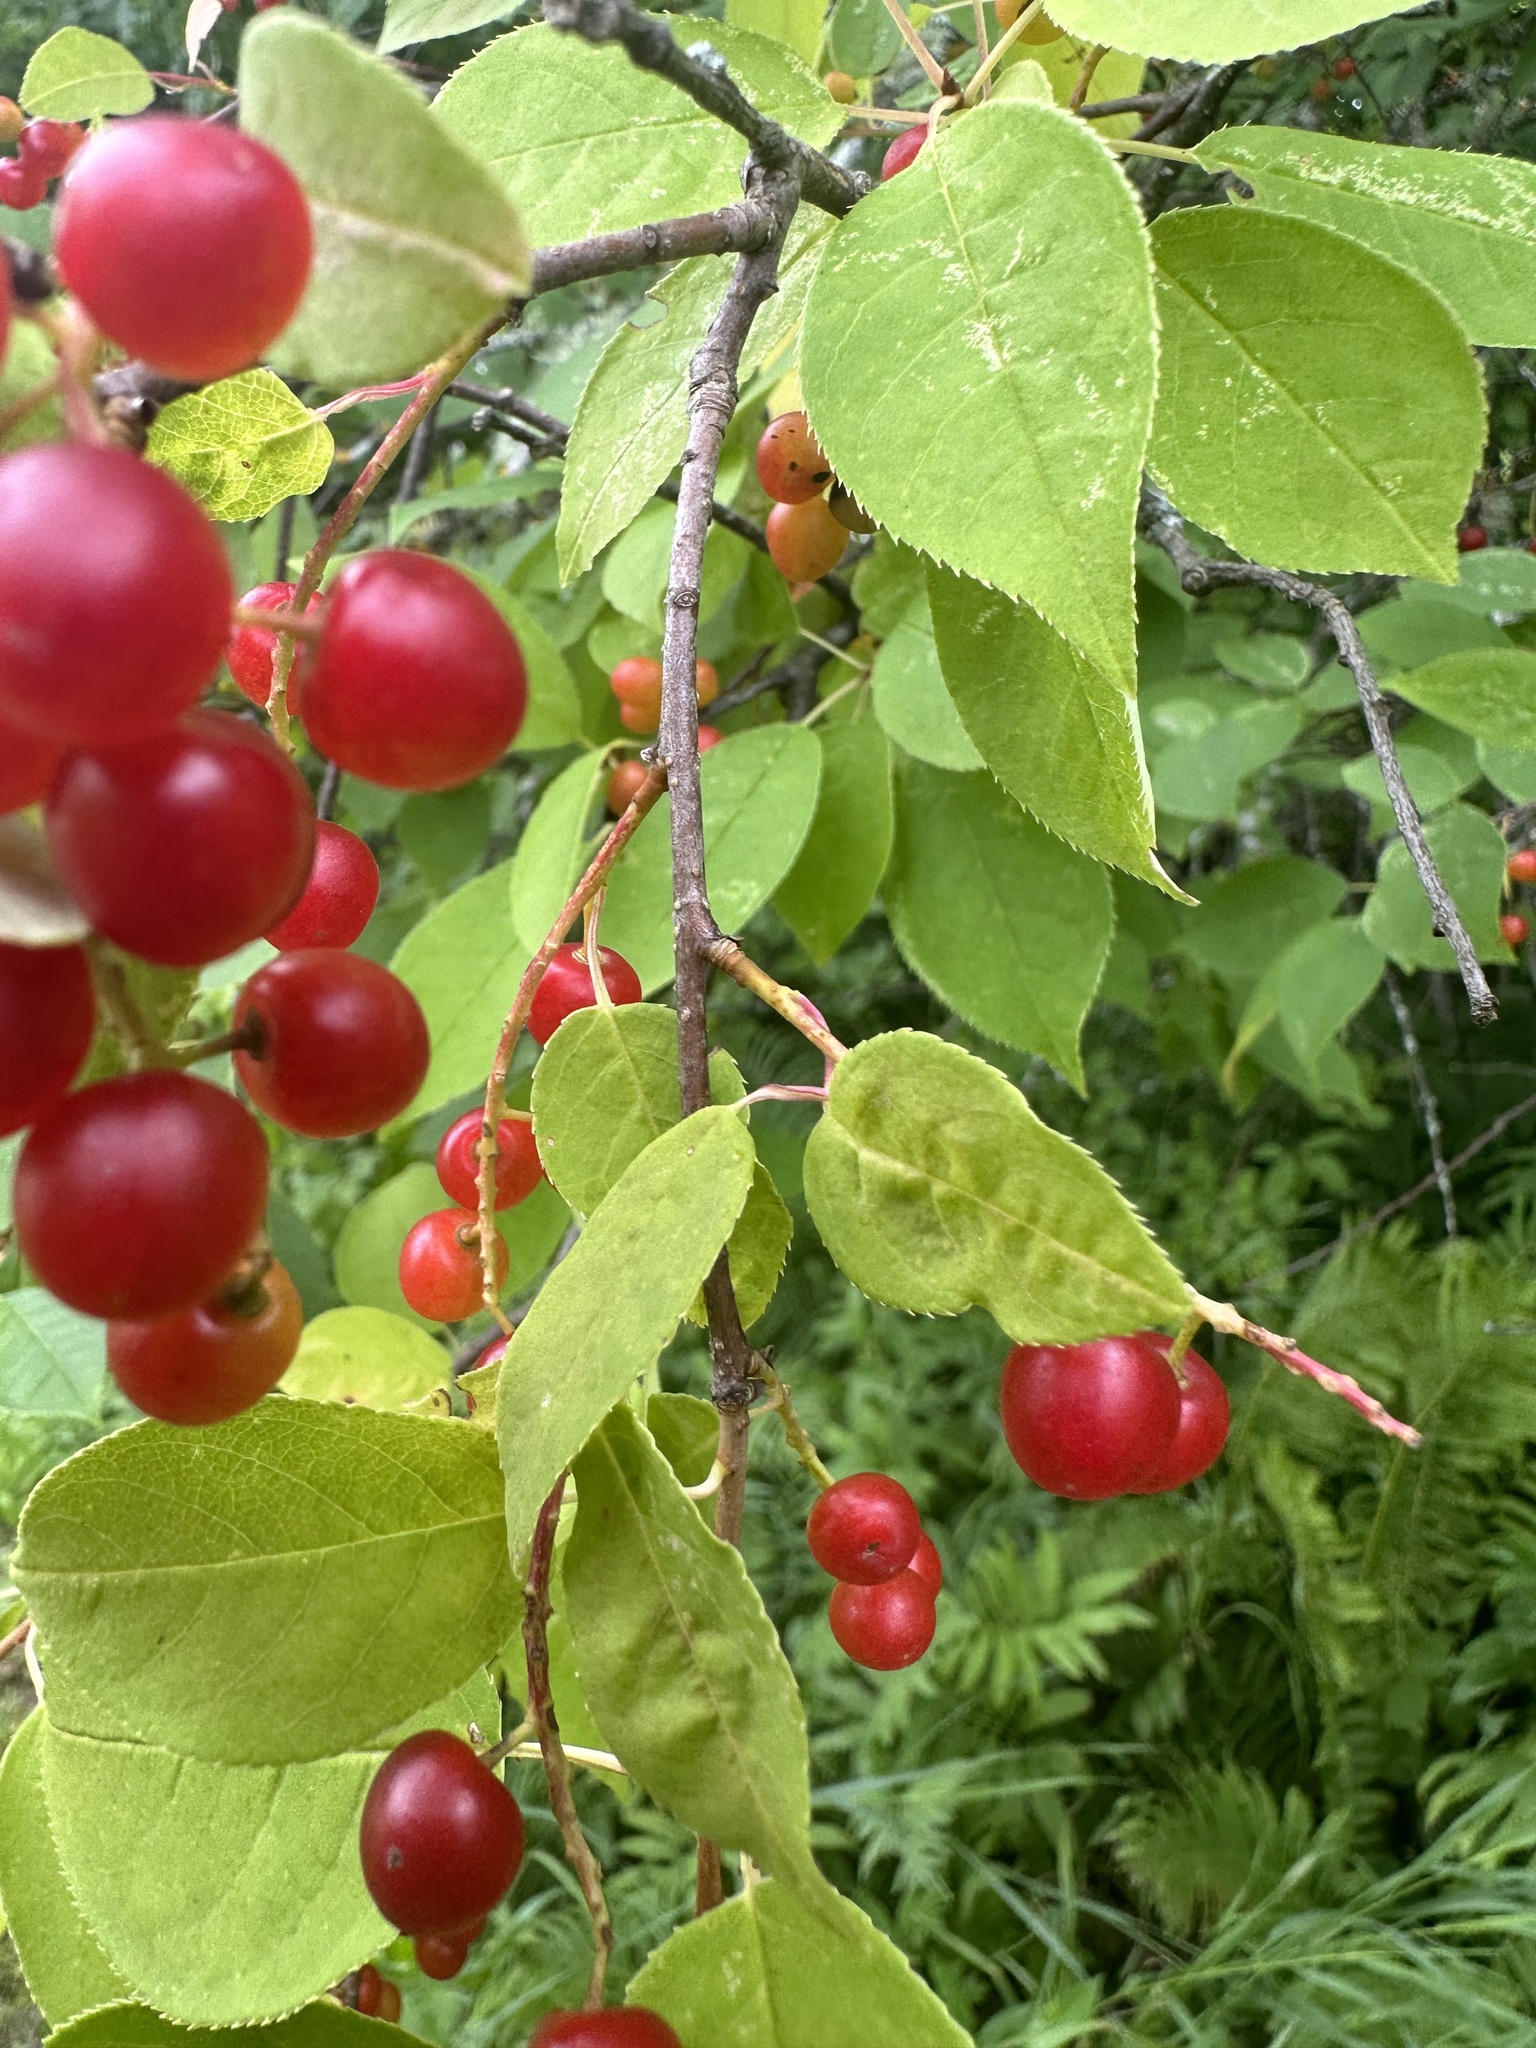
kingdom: Plantae
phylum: Tracheophyta
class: Magnoliopsida
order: Rosales
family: Rosaceae
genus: Prunus
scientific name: Prunus virginiana
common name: Chokecherry
